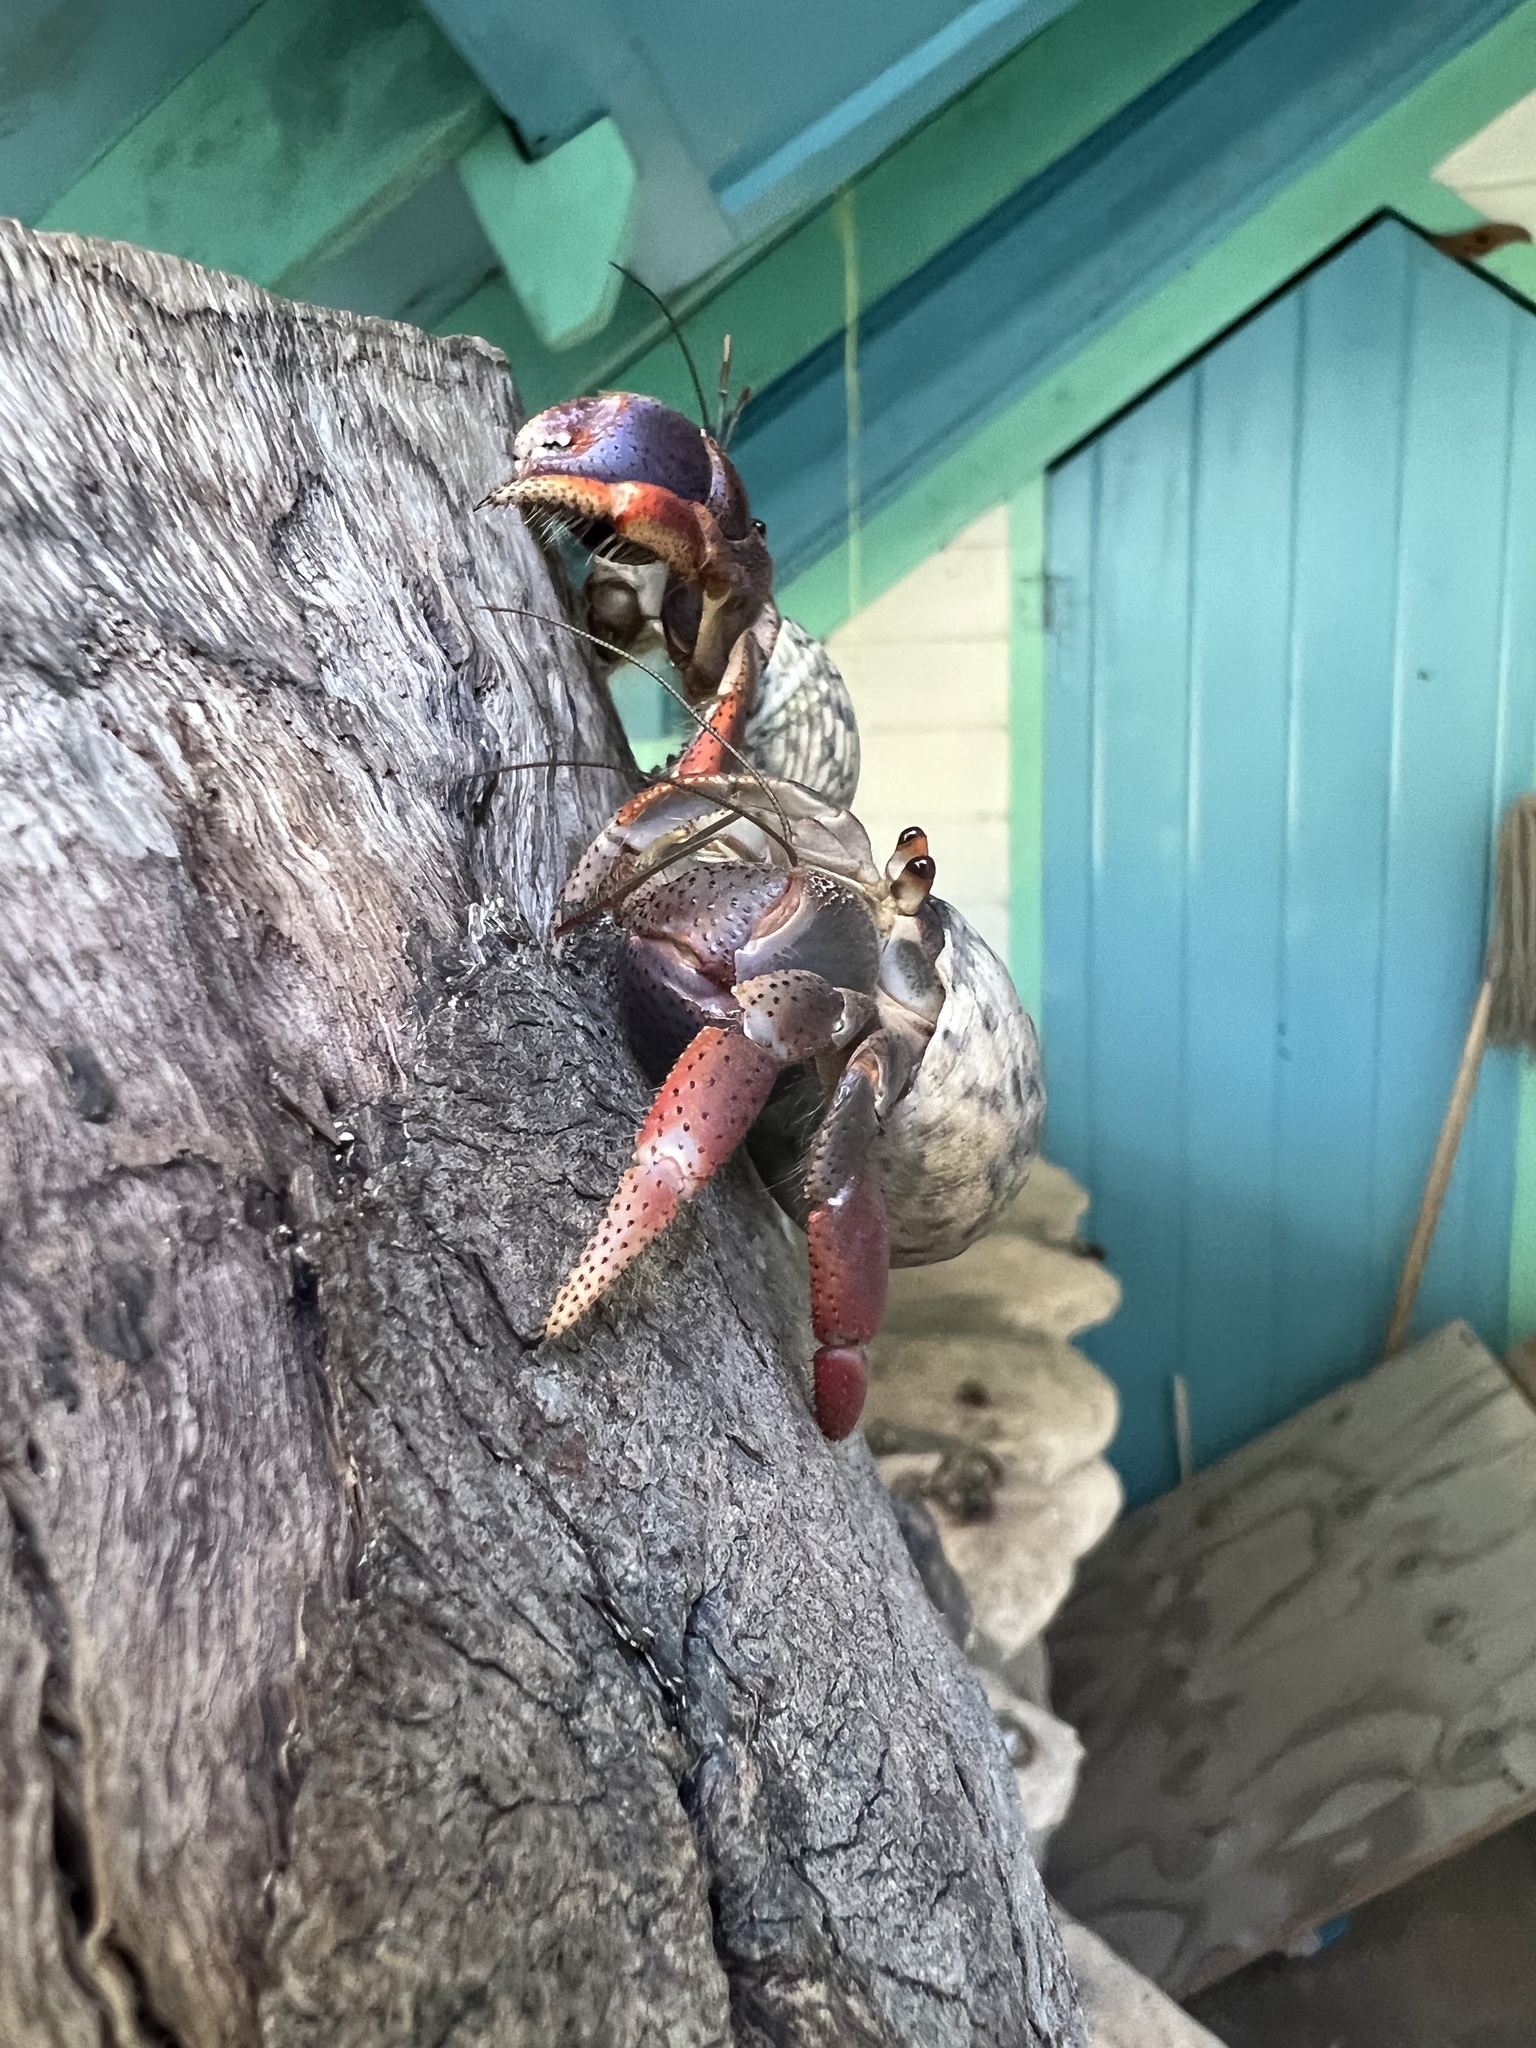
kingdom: Animalia
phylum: Arthropoda
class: Malacostraca
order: Decapoda
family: Coenobitidae
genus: Coenobita
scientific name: Coenobita clypeatus
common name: Caribbean hermit crab
